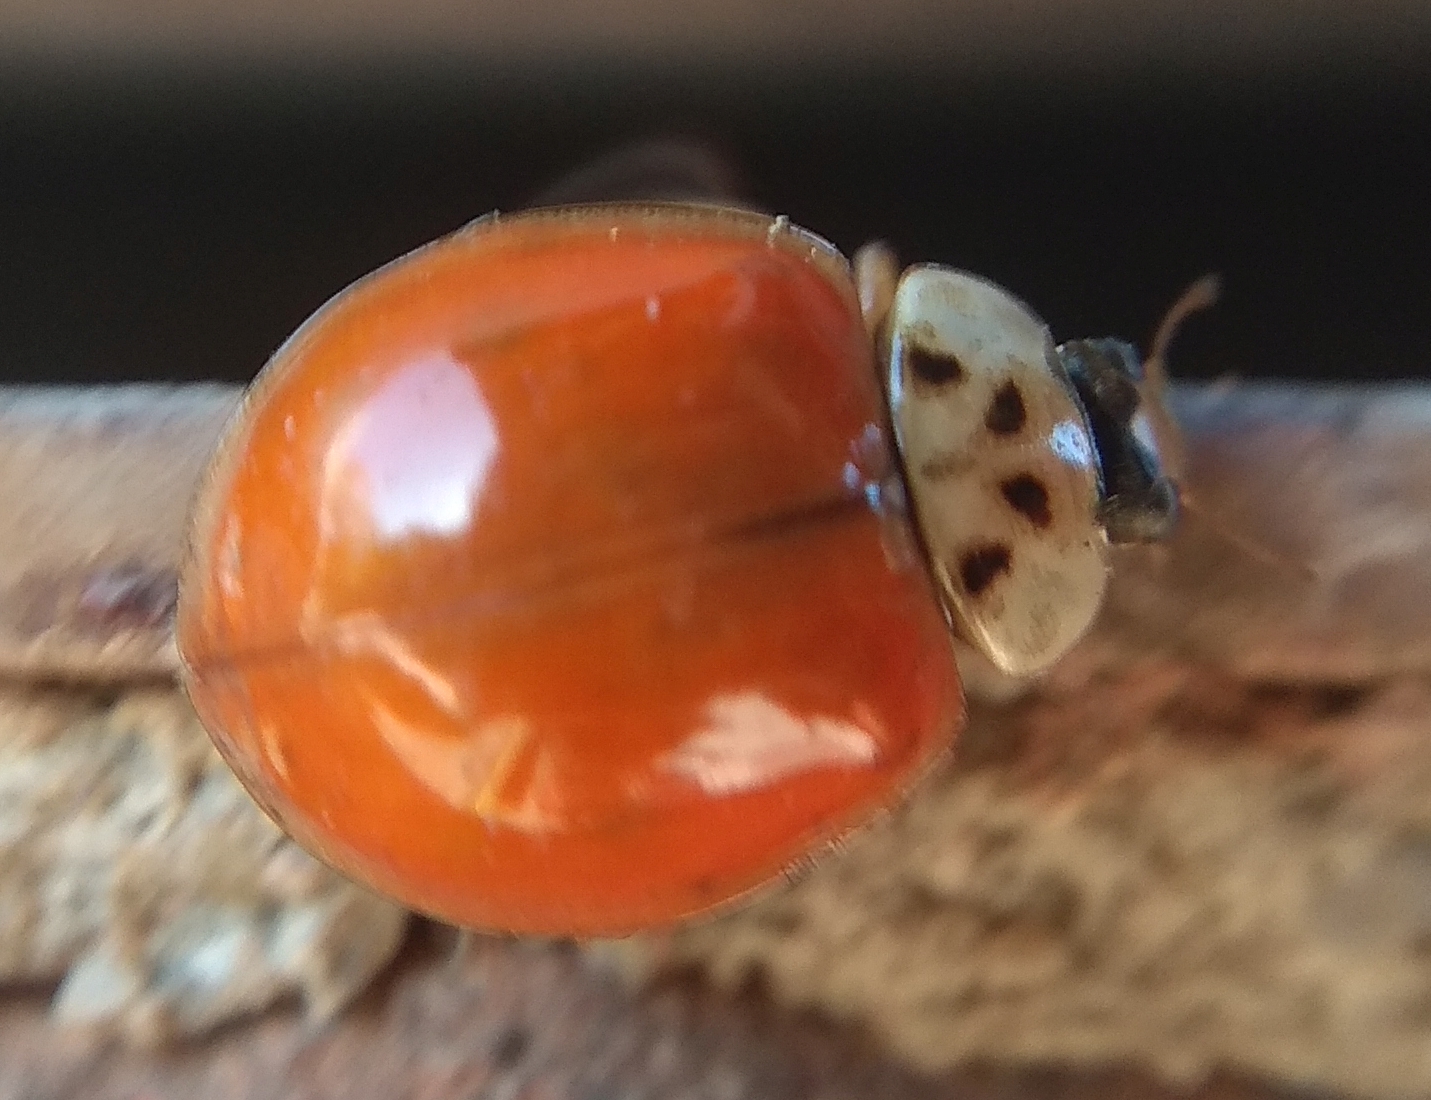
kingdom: Animalia
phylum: Arthropoda
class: Insecta
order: Coleoptera
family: Coccinellidae
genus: Harmonia
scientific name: Harmonia axyridis
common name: Harlequin ladybird
